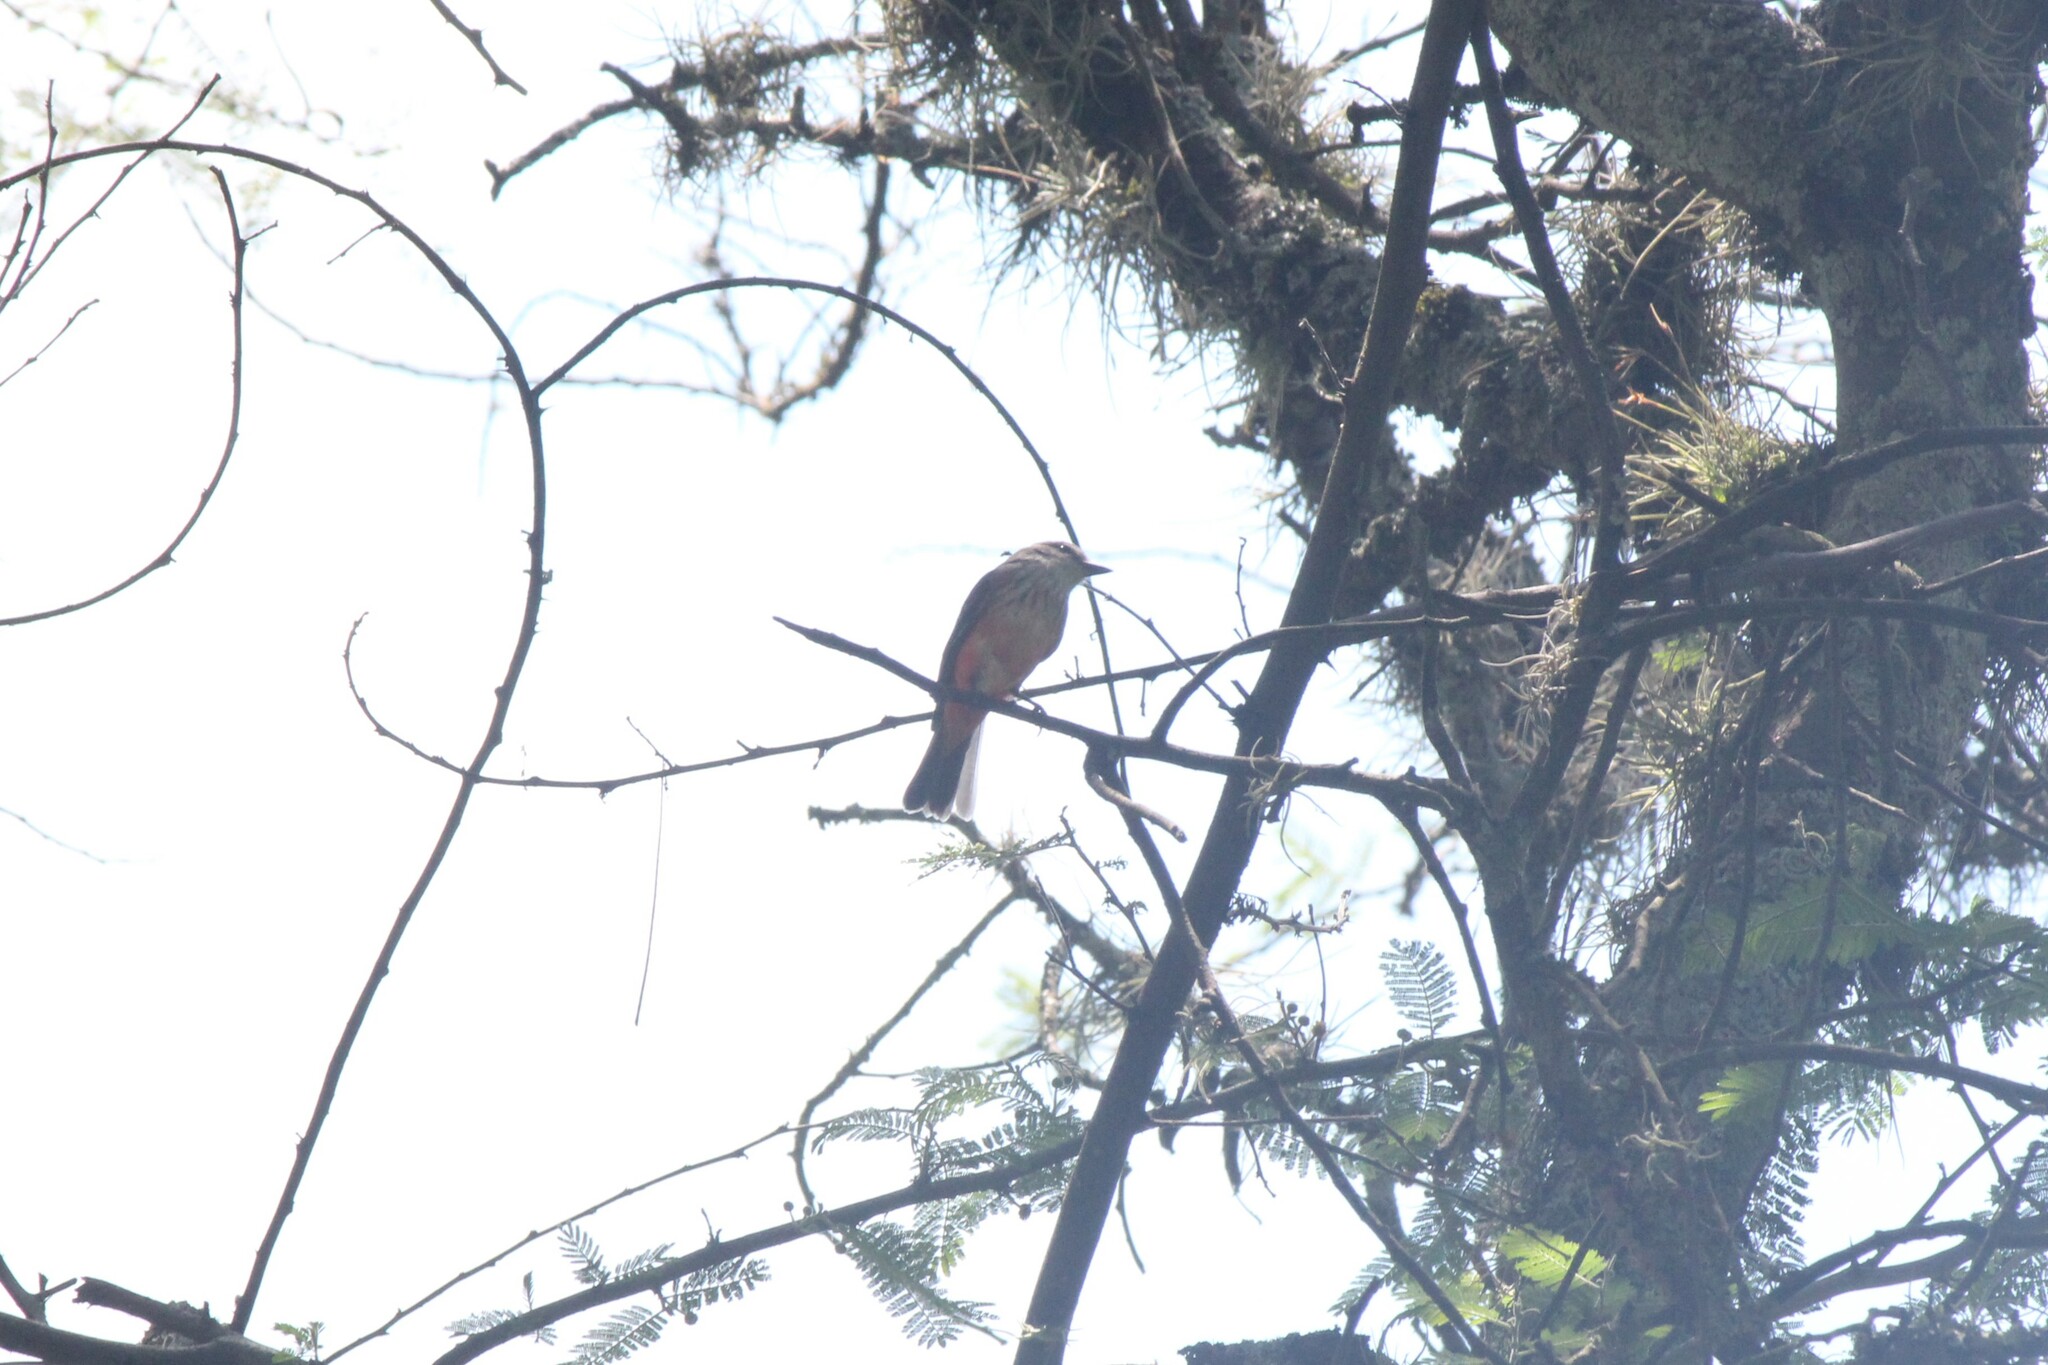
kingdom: Animalia
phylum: Chordata
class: Aves
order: Passeriformes
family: Tyrannidae
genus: Myiotheretes
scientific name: Myiotheretes striaticollis
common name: Streak-throated bush tyrant
